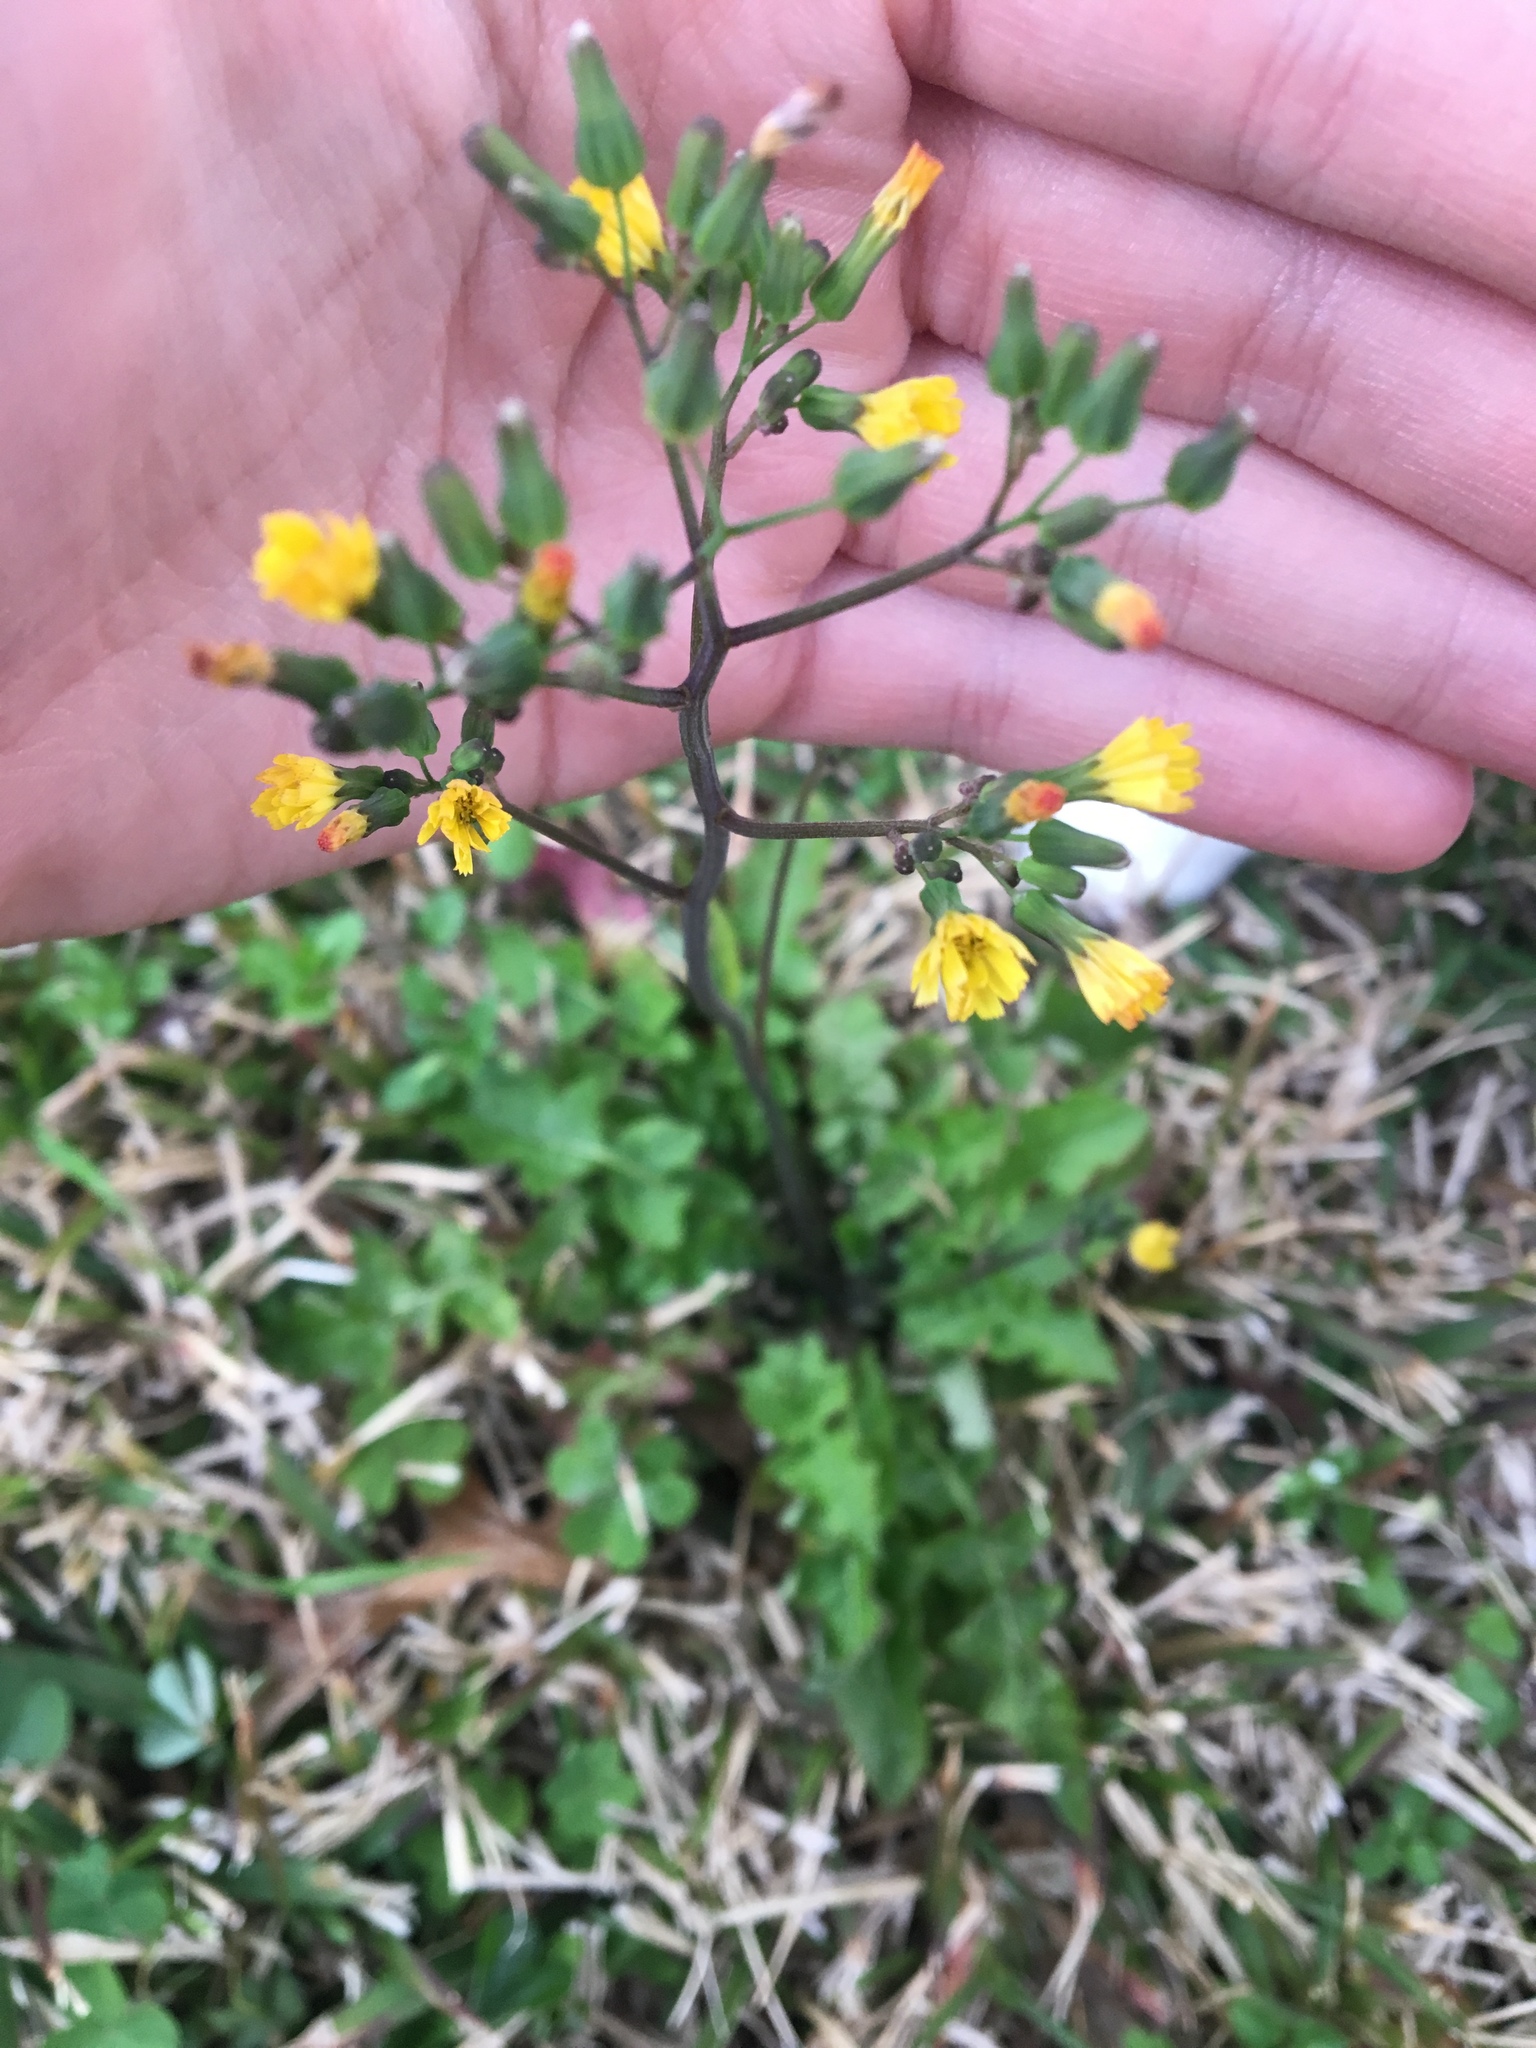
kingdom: Plantae
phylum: Tracheophyta
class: Magnoliopsida
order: Asterales
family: Asteraceae
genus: Youngia
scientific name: Youngia japonica
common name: Oriental false hawksbeard
